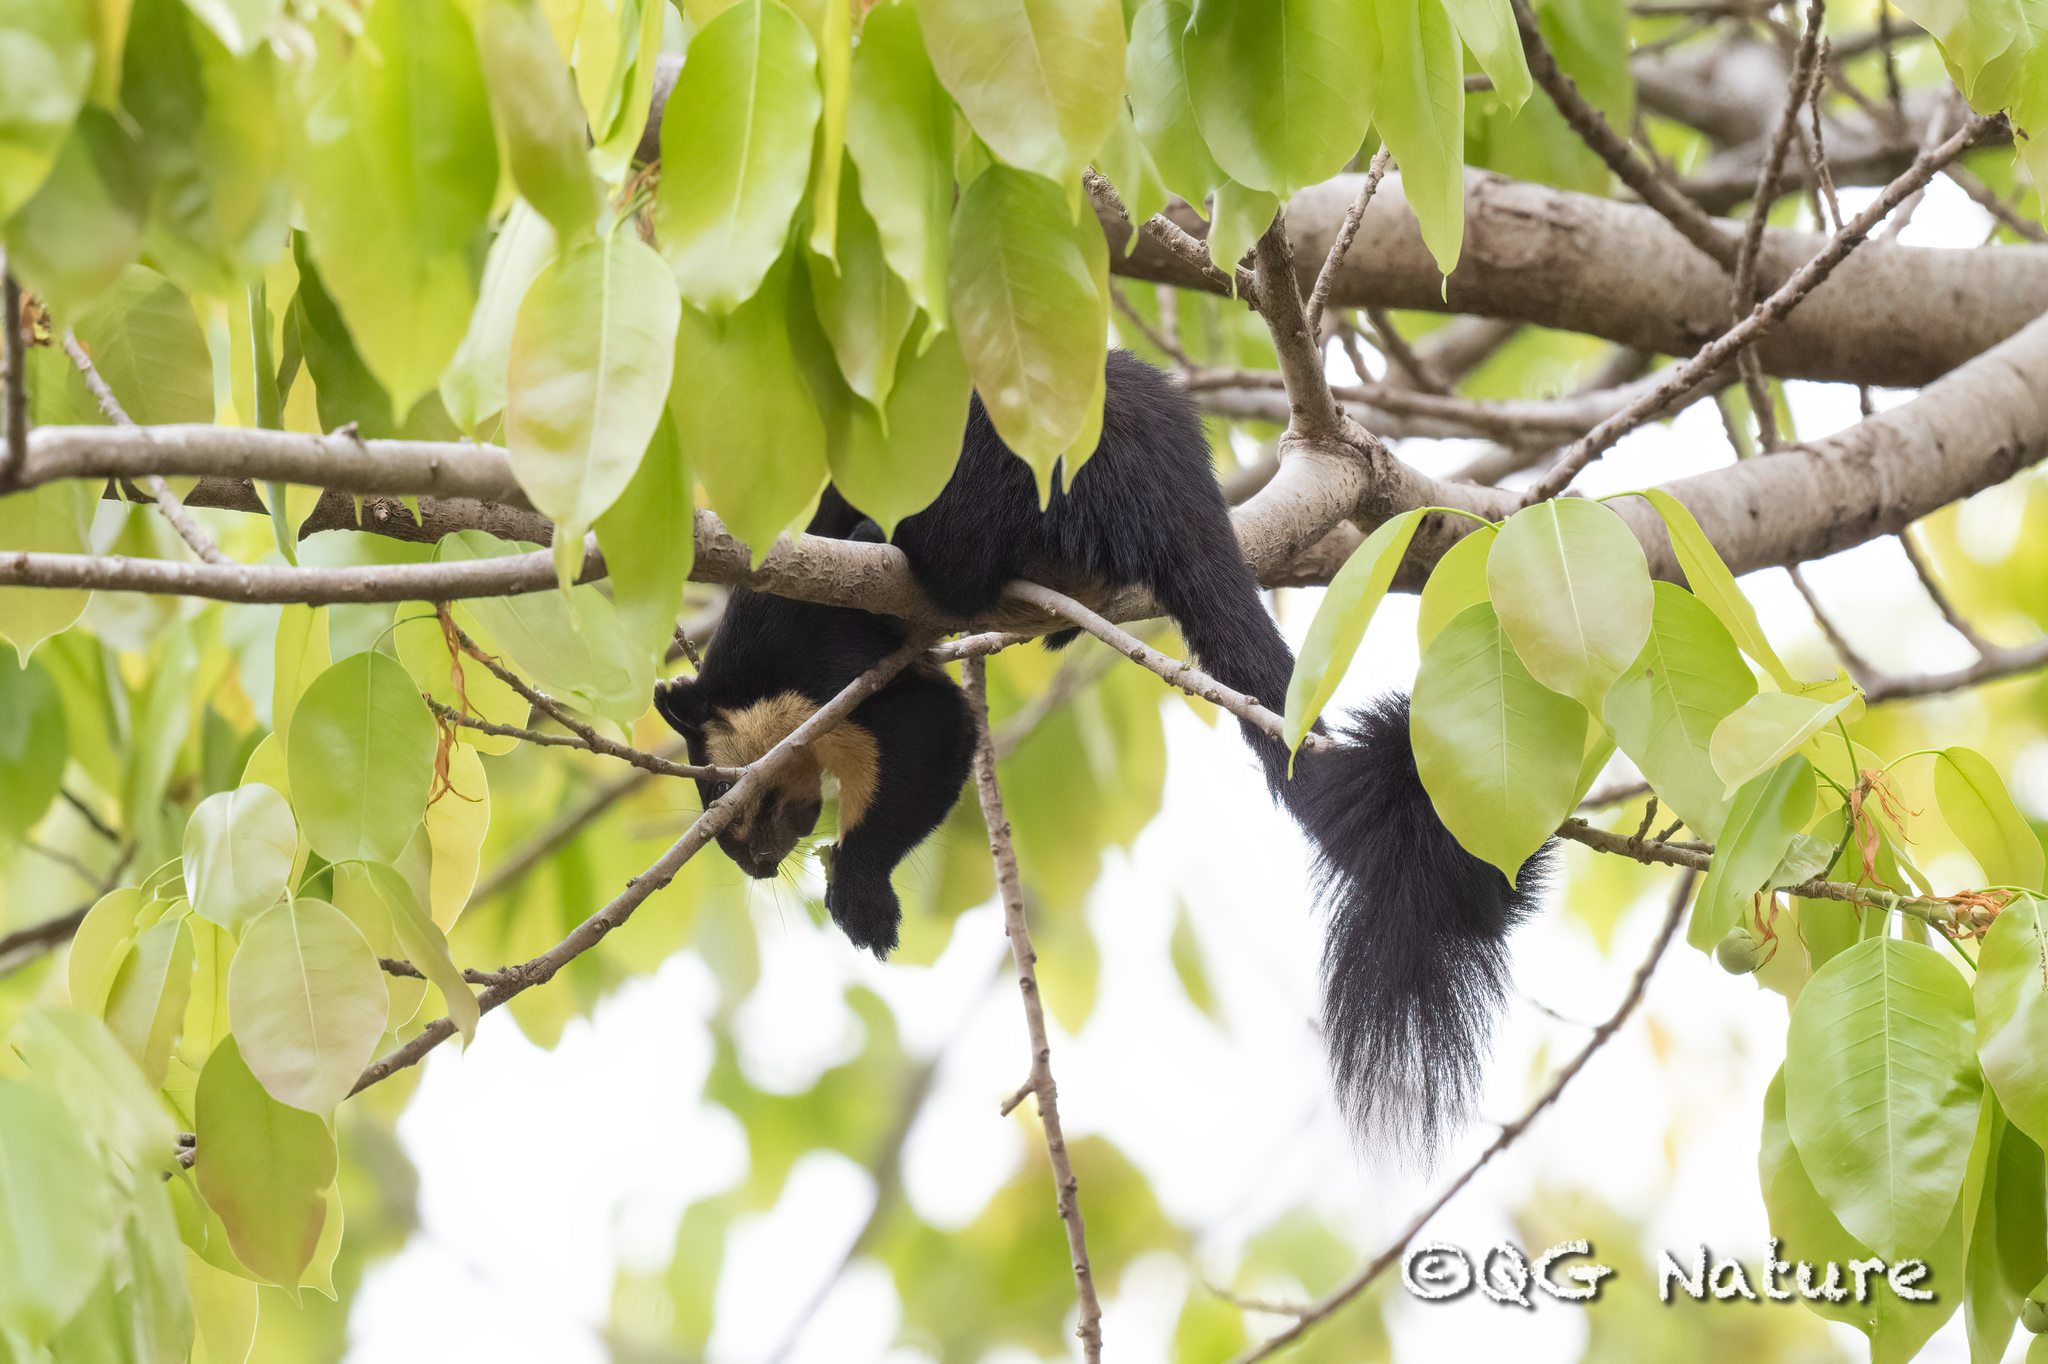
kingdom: Animalia
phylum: Chordata
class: Mammalia
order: Rodentia
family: Sciuridae
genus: Ratufa
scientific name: Ratufa bicolor
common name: Black giant squirrel
